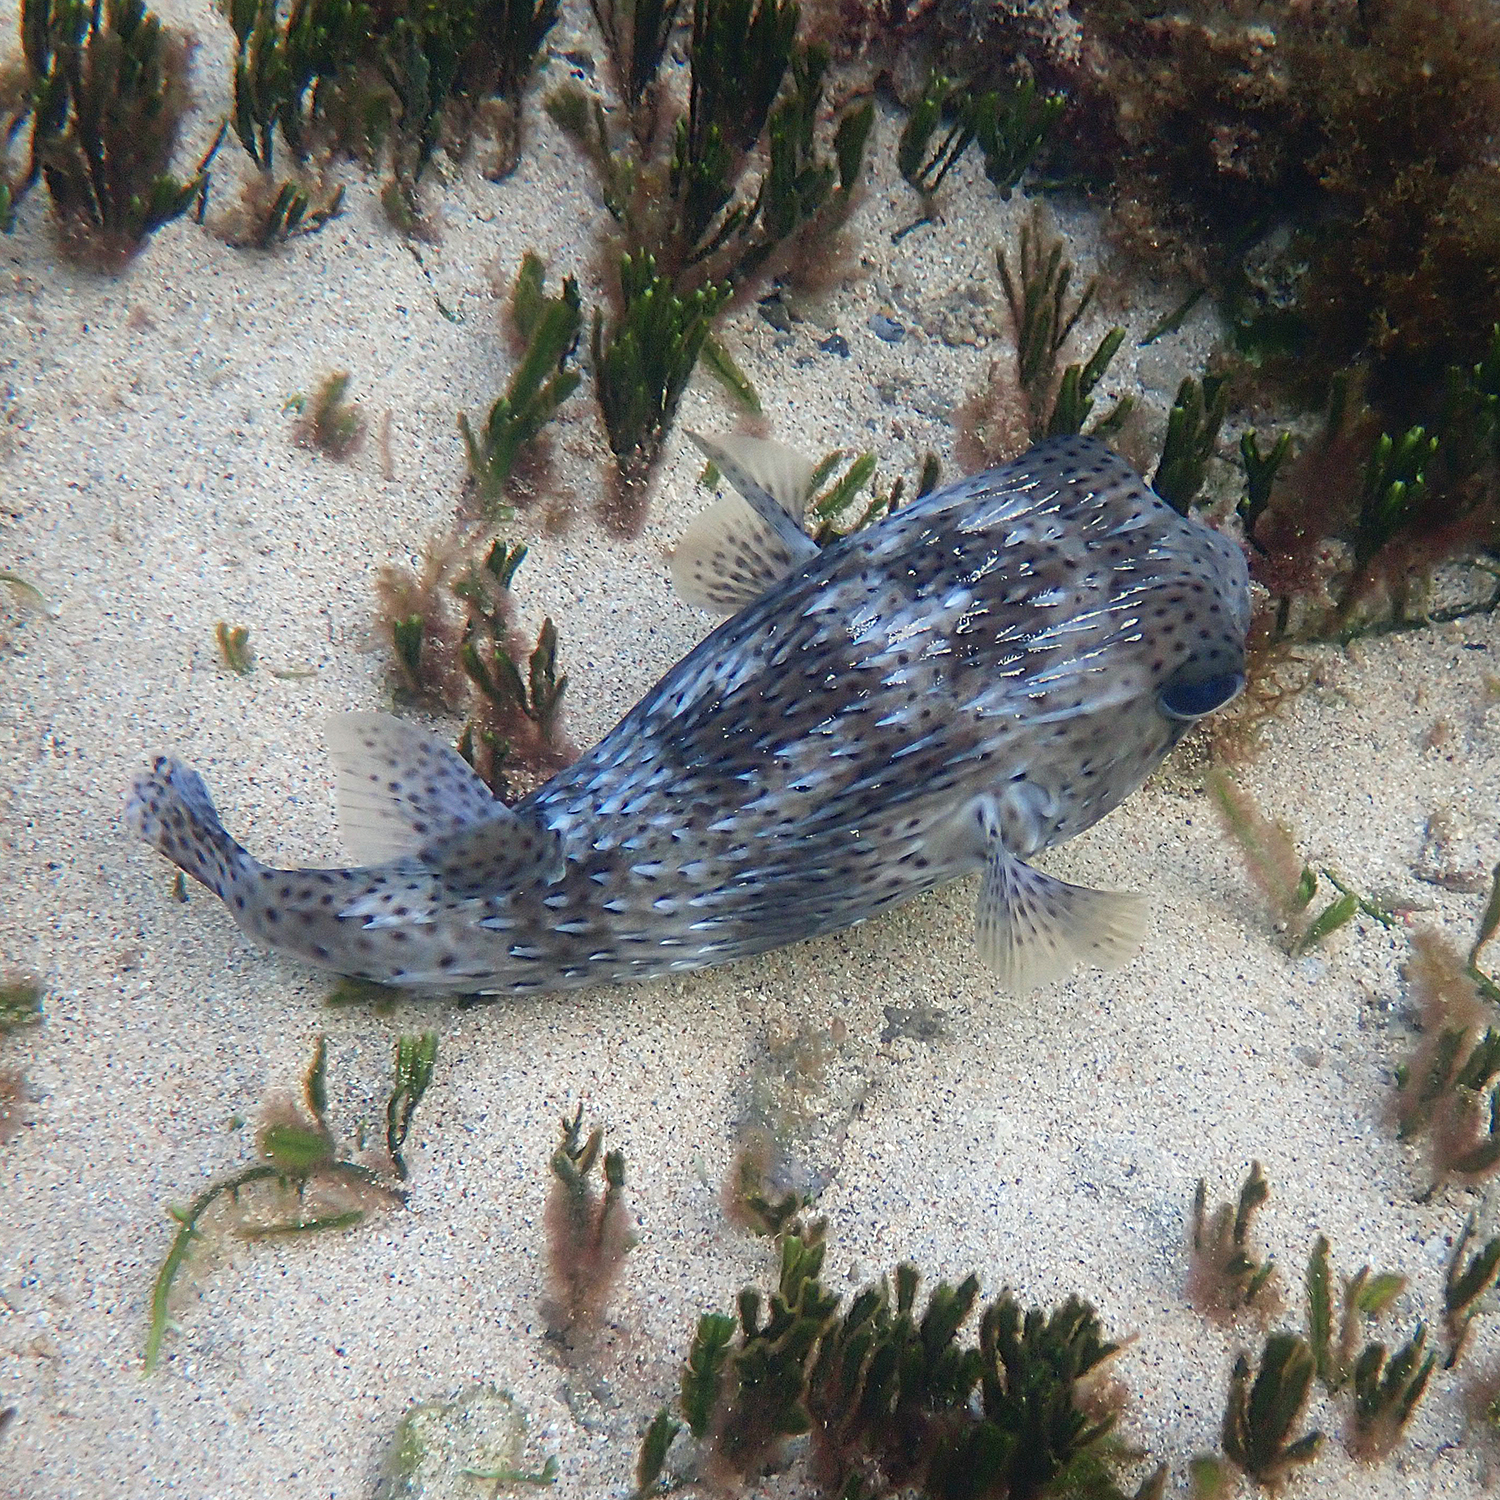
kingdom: Animalia
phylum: Chordata
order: Tetraodontiformes
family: Diodontidae
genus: Diodon
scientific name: Diodon hystrix
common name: Giant porcupinefish
